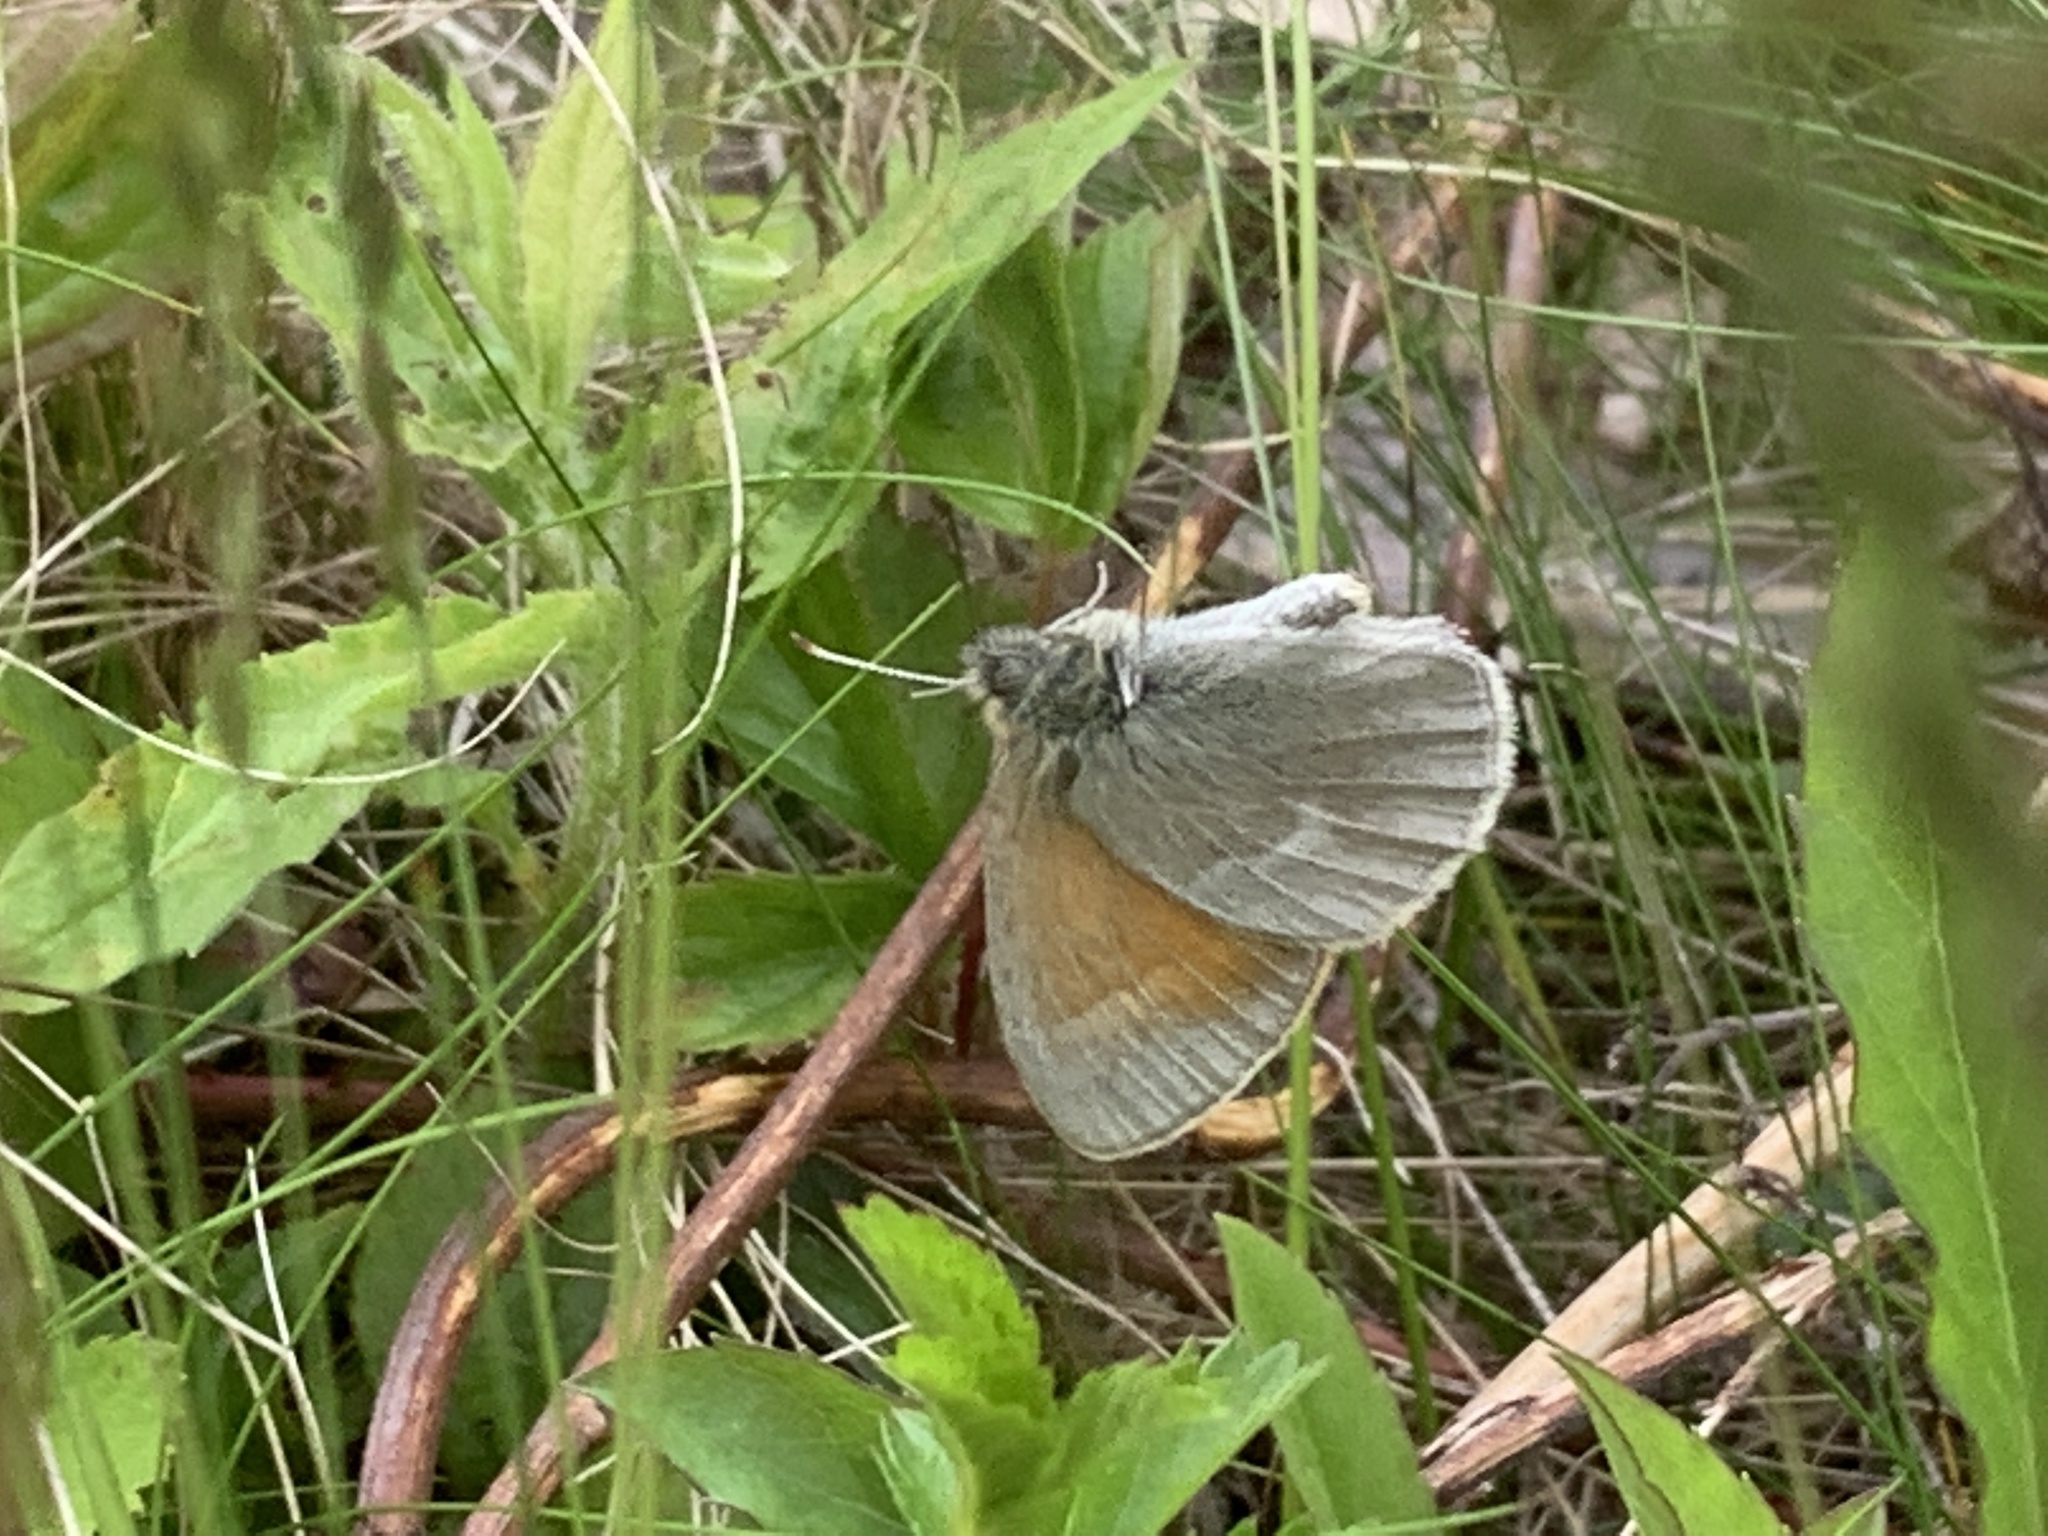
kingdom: Animalia
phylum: Arthropoda
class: Insecta
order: Lepidoptera
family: Nymphalidae
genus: Coenonympha
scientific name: Coenonympha california
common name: Common ringlet
